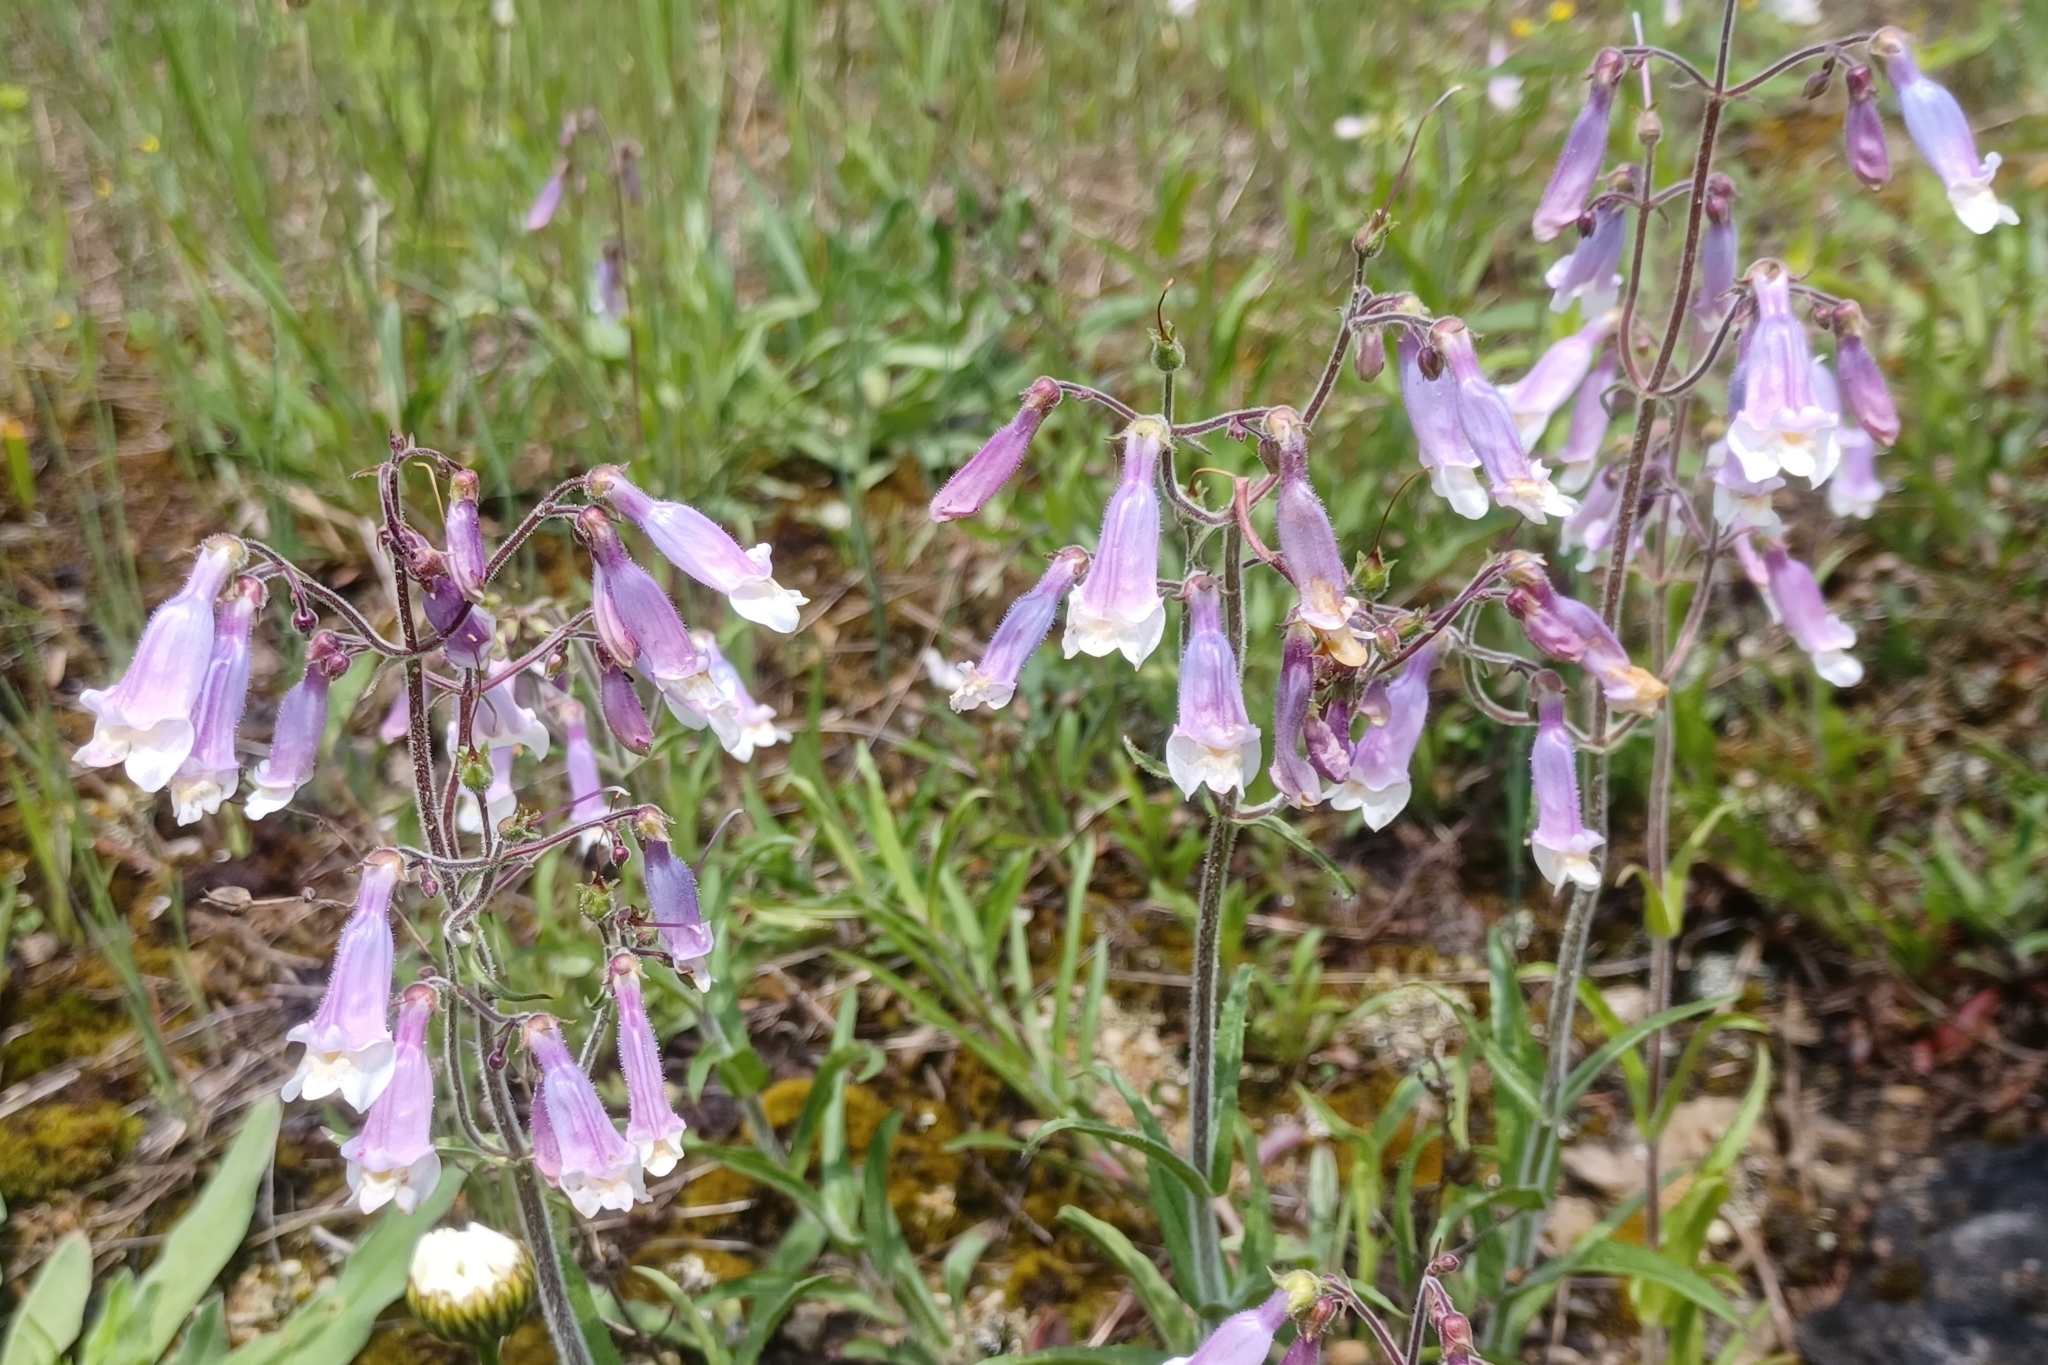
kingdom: Plantae
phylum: Tracheophyta
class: Magnoliopsida
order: Lamiales
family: Plantaginaceae
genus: Penstemon
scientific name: Penstemon hirsutus
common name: Hairy beardtongue
